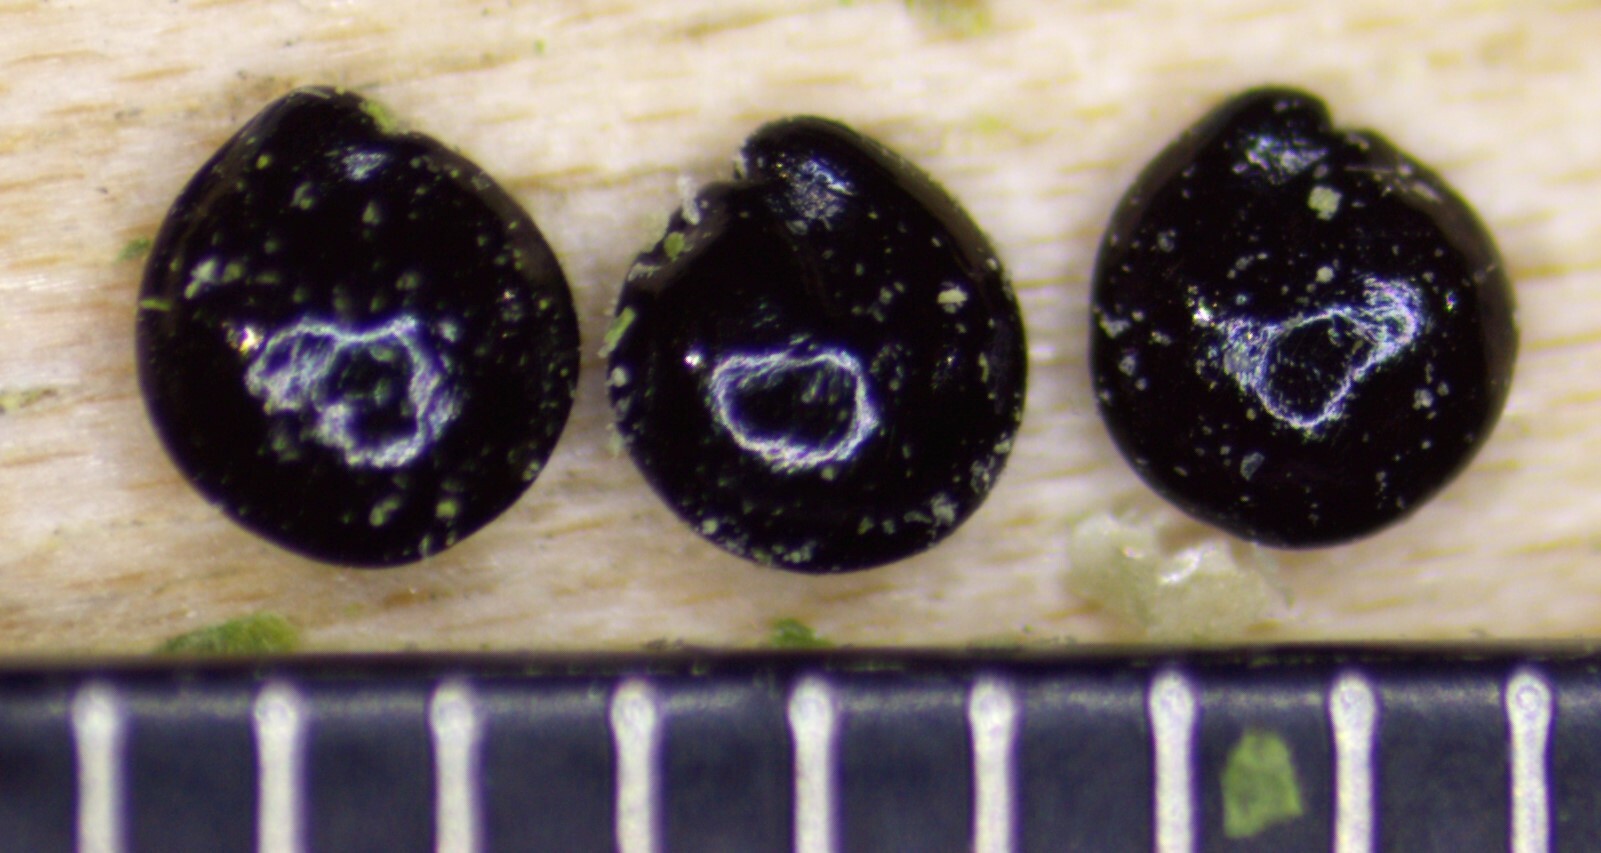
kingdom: Plantae
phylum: Tracheophyta
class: Magnoliopsida
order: Caryophyllales
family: Amaranthaceae
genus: Chenopodium
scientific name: Chenopodium album
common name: Fat-hen
